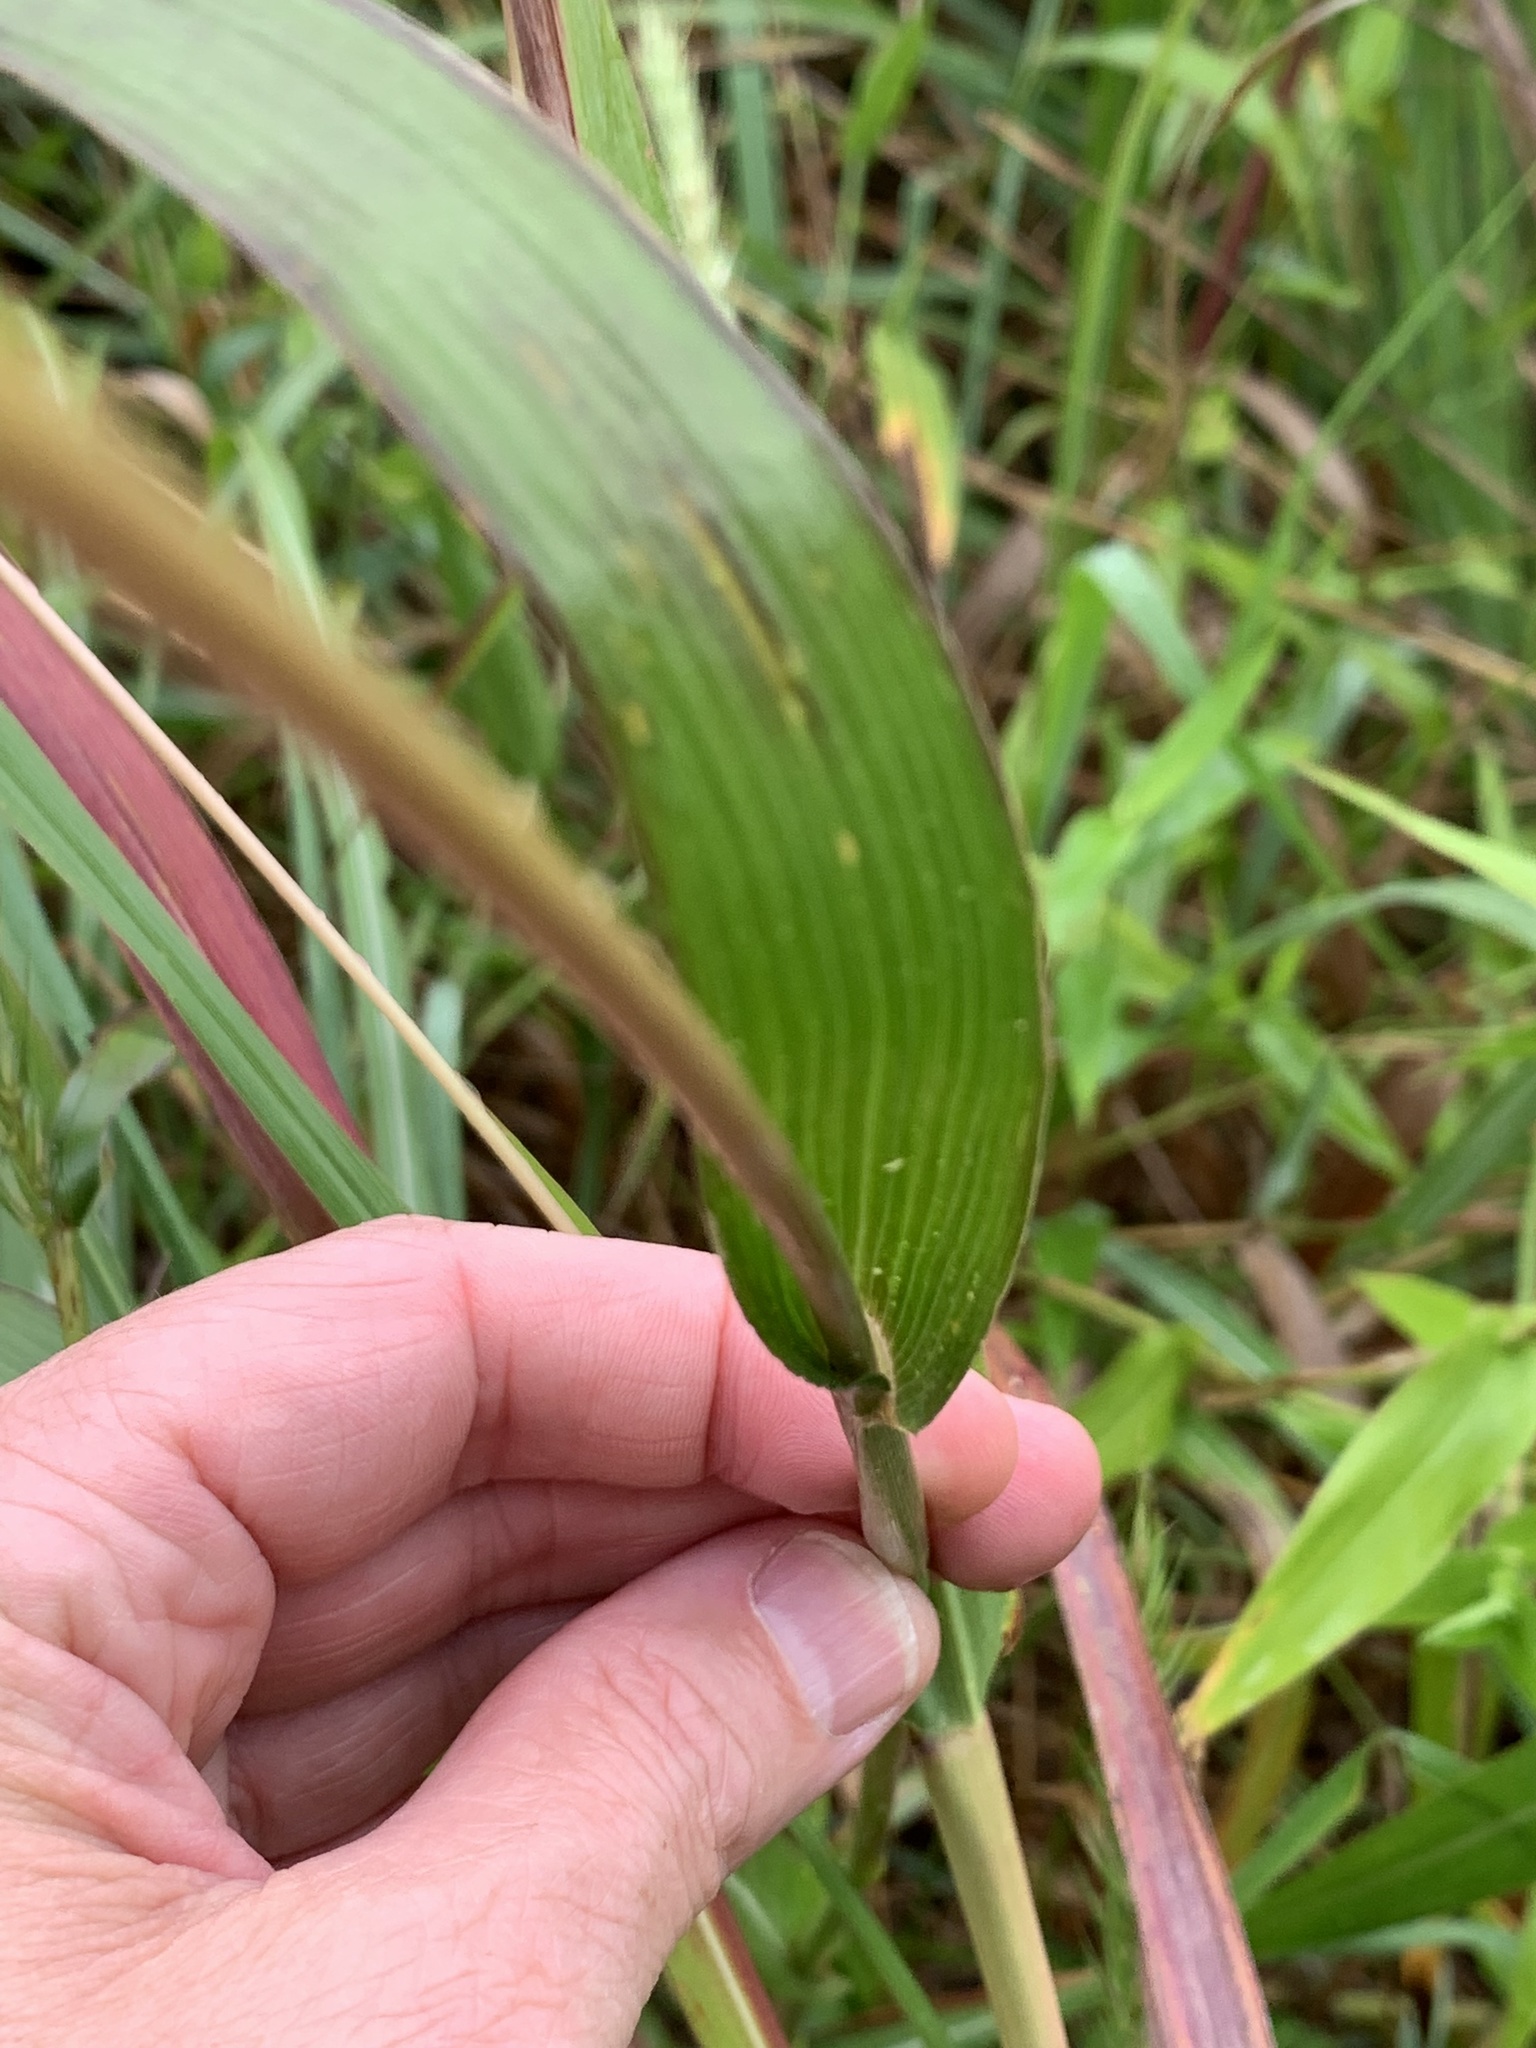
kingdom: Plantae
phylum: Tracheophyta
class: Liliopsida
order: Poales
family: Poaceae
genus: Tripsacum
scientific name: Tripsacum dactyloides
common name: Buffalo-grass
